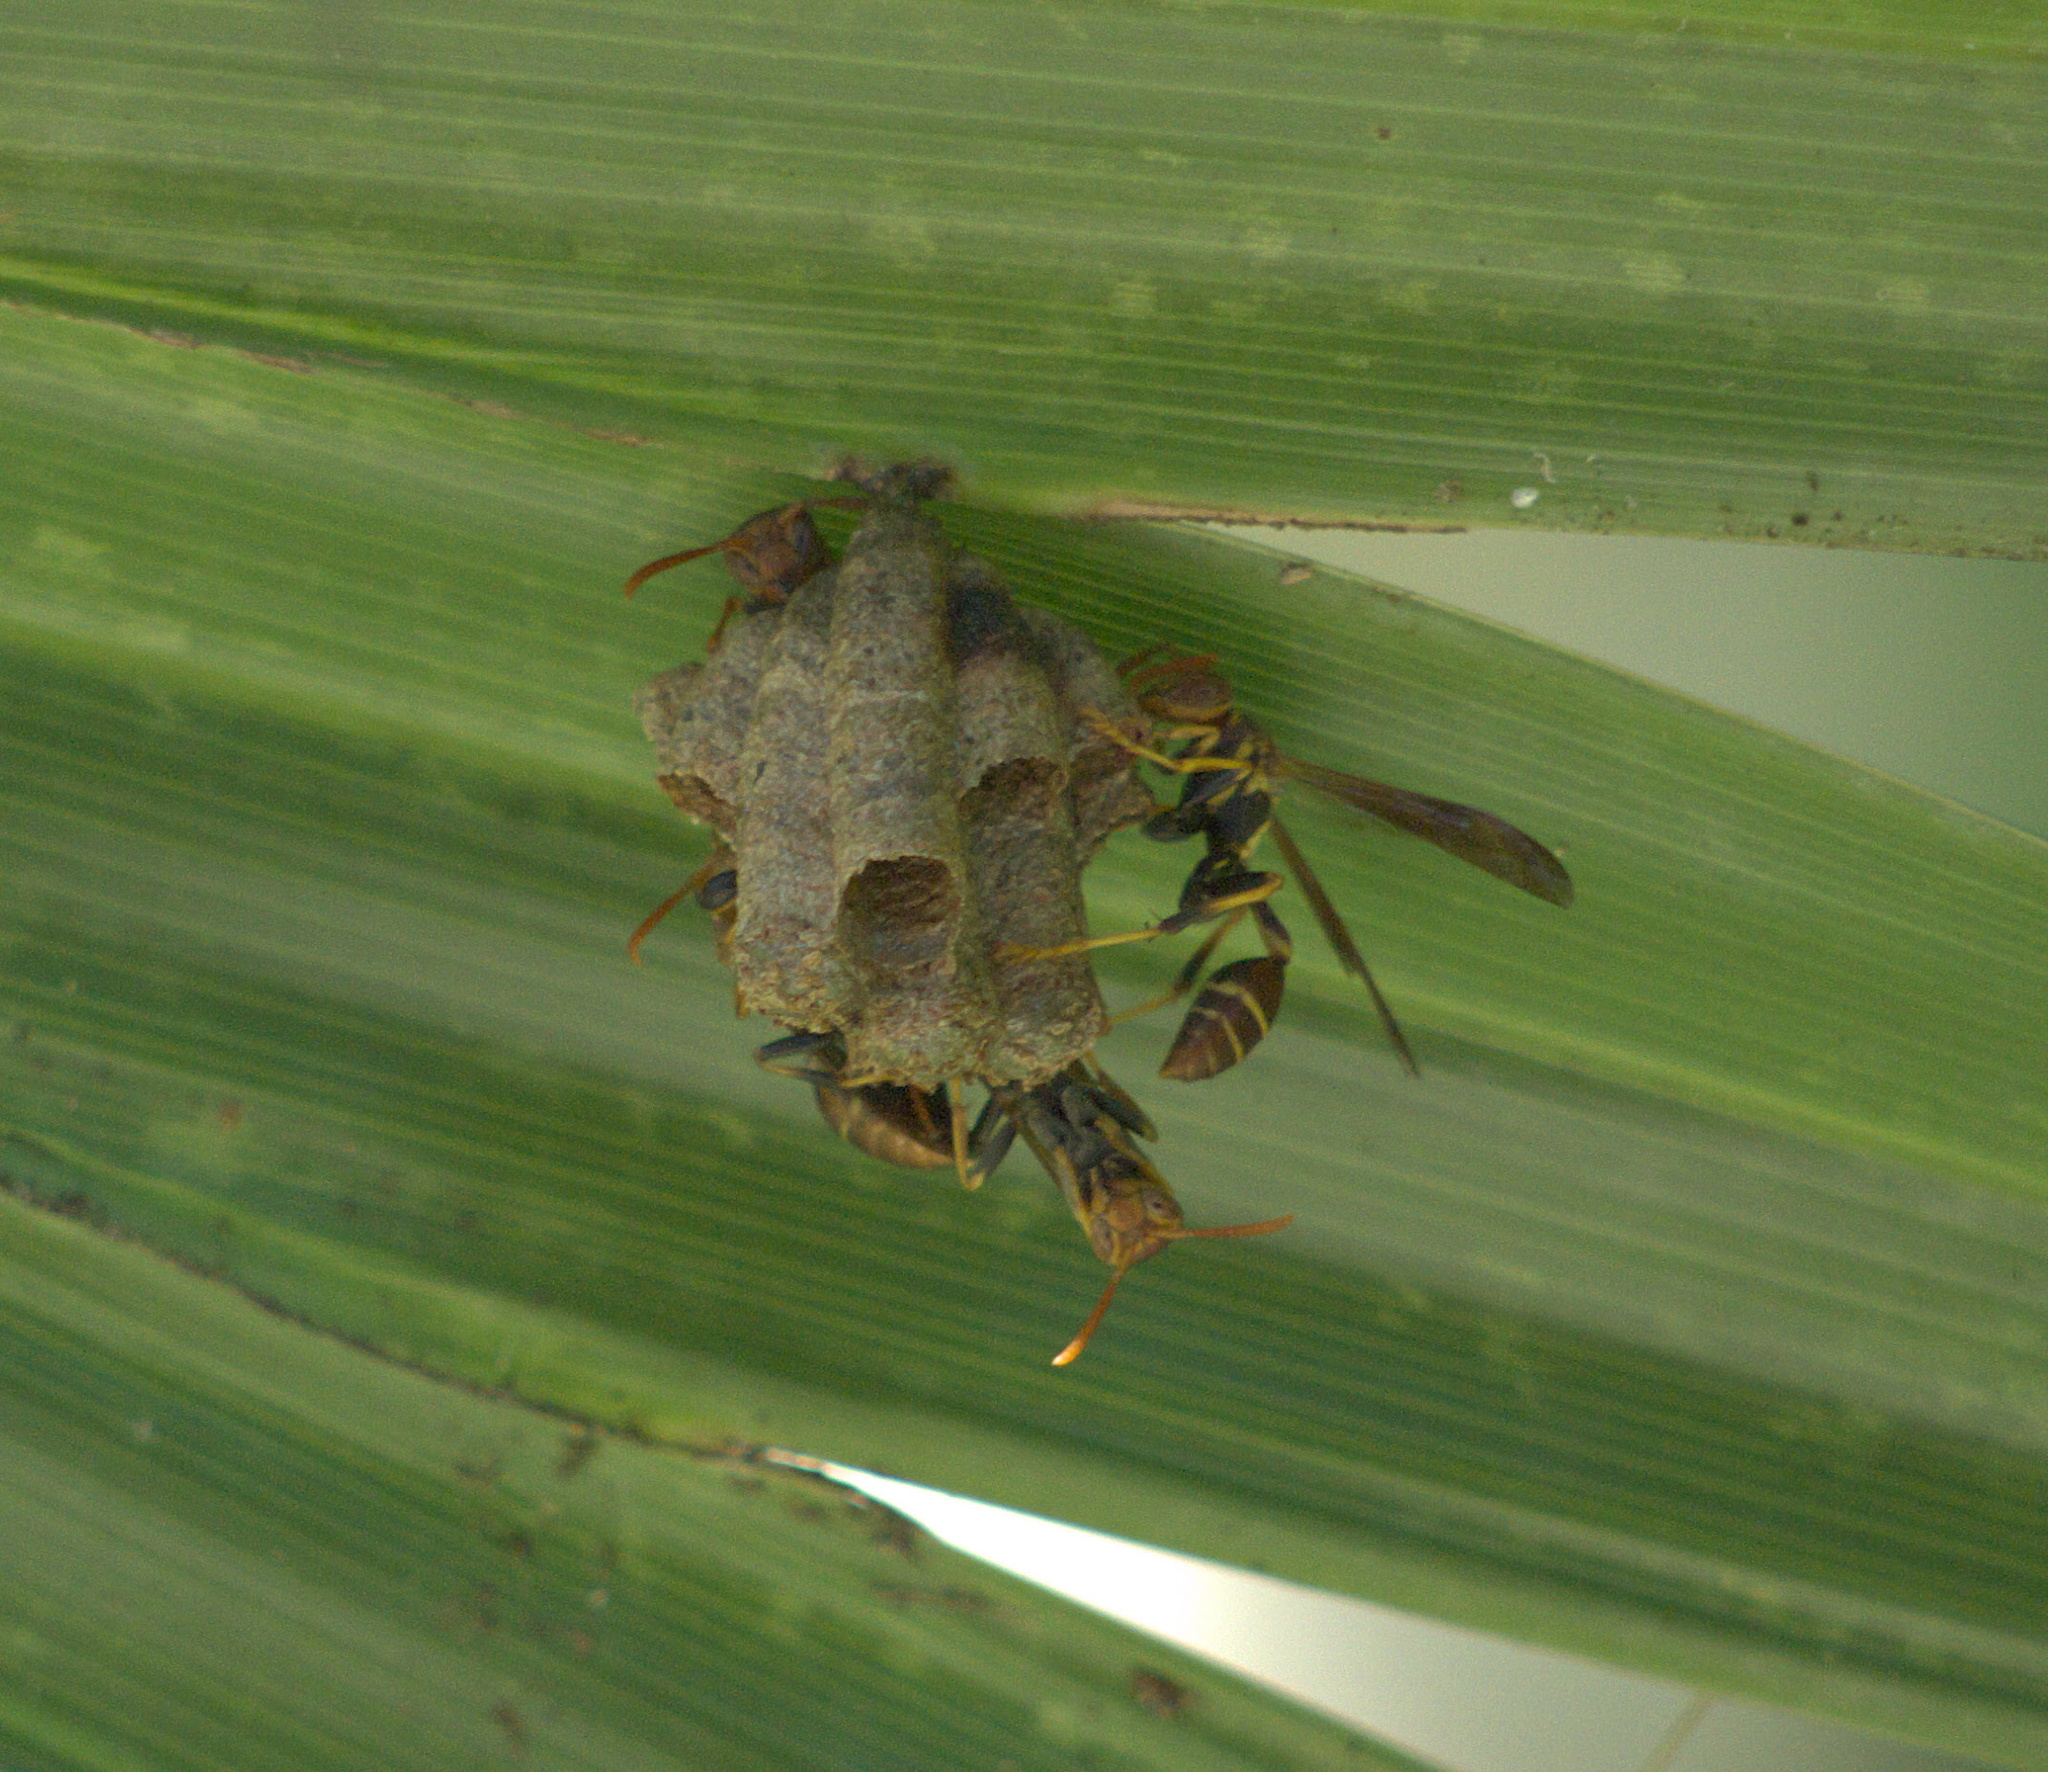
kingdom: Animalia
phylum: Arthropoda
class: Insecta
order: Hymenoptera
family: Vespidae
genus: Mischocyttarus
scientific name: Mischocyttarus mexicanus
